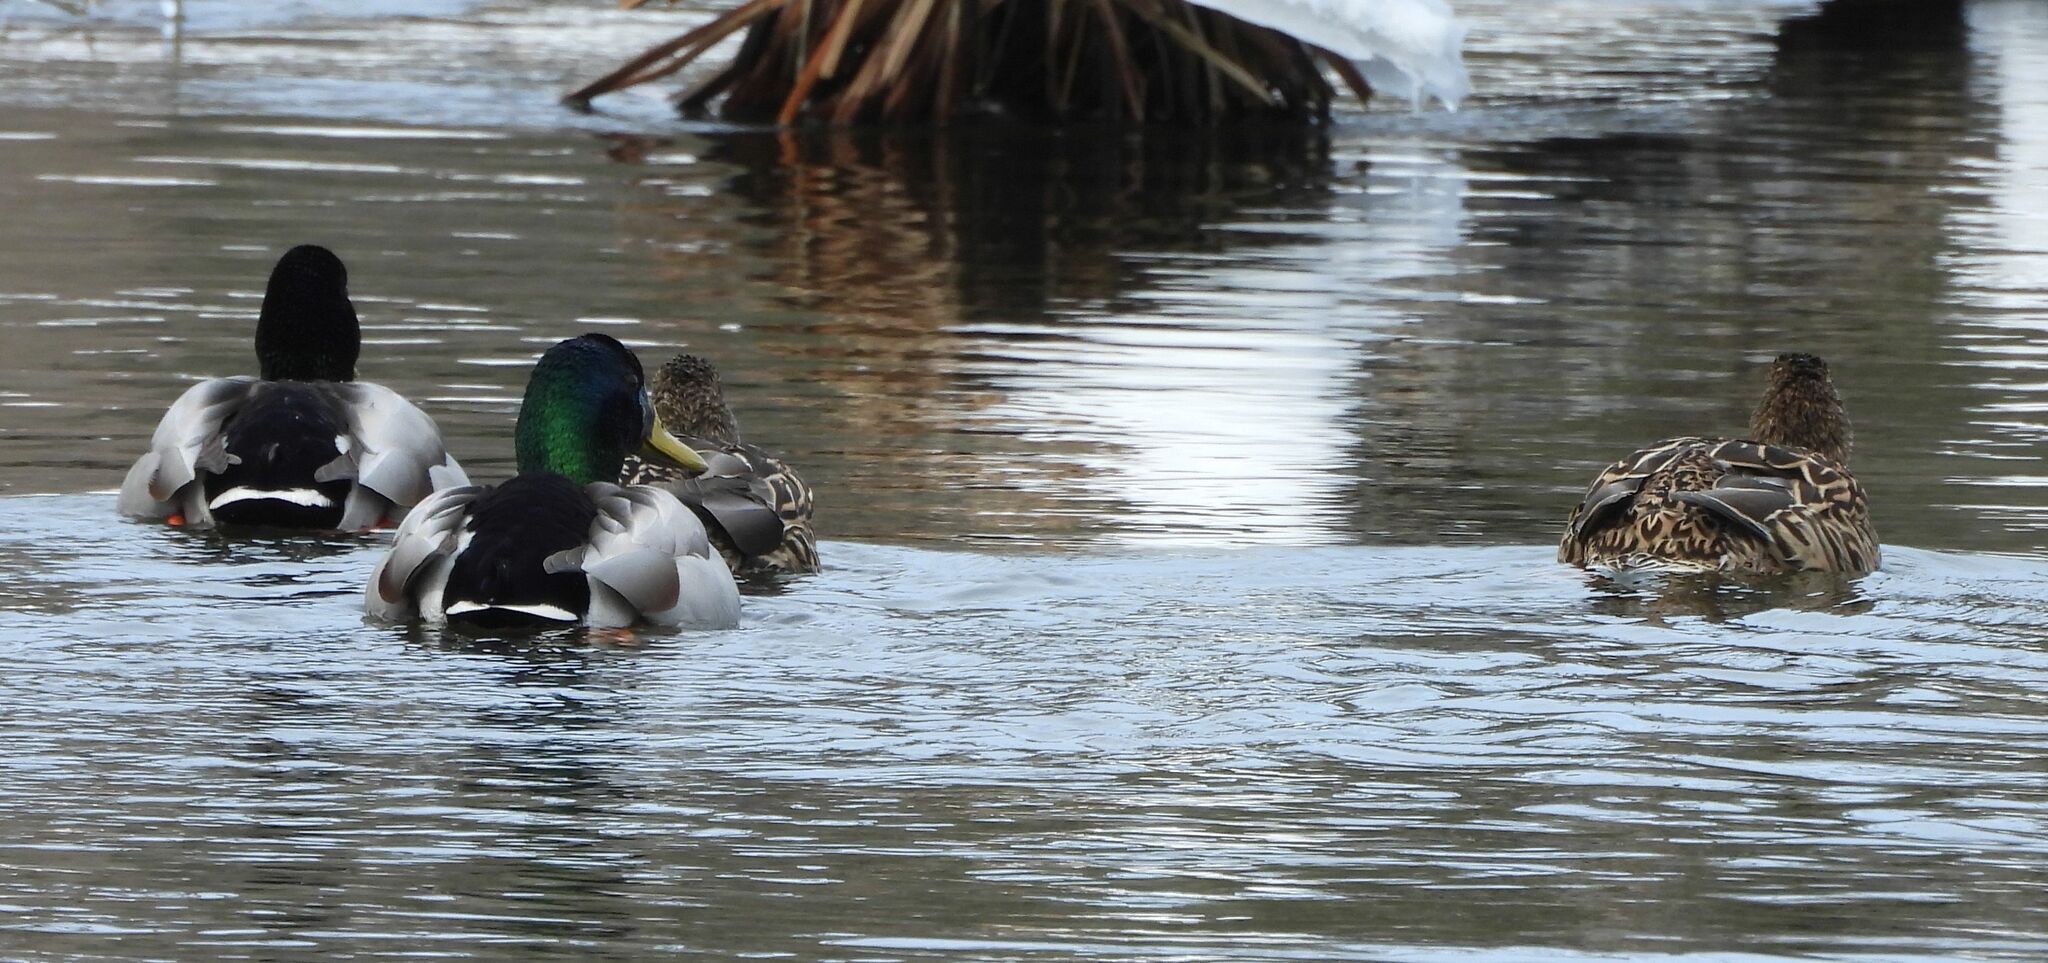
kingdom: Animalia
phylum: Chordata
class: Aves
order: Anseriformes
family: Anatidae
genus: Anas
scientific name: Anas platyrhynchos
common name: Mallard
